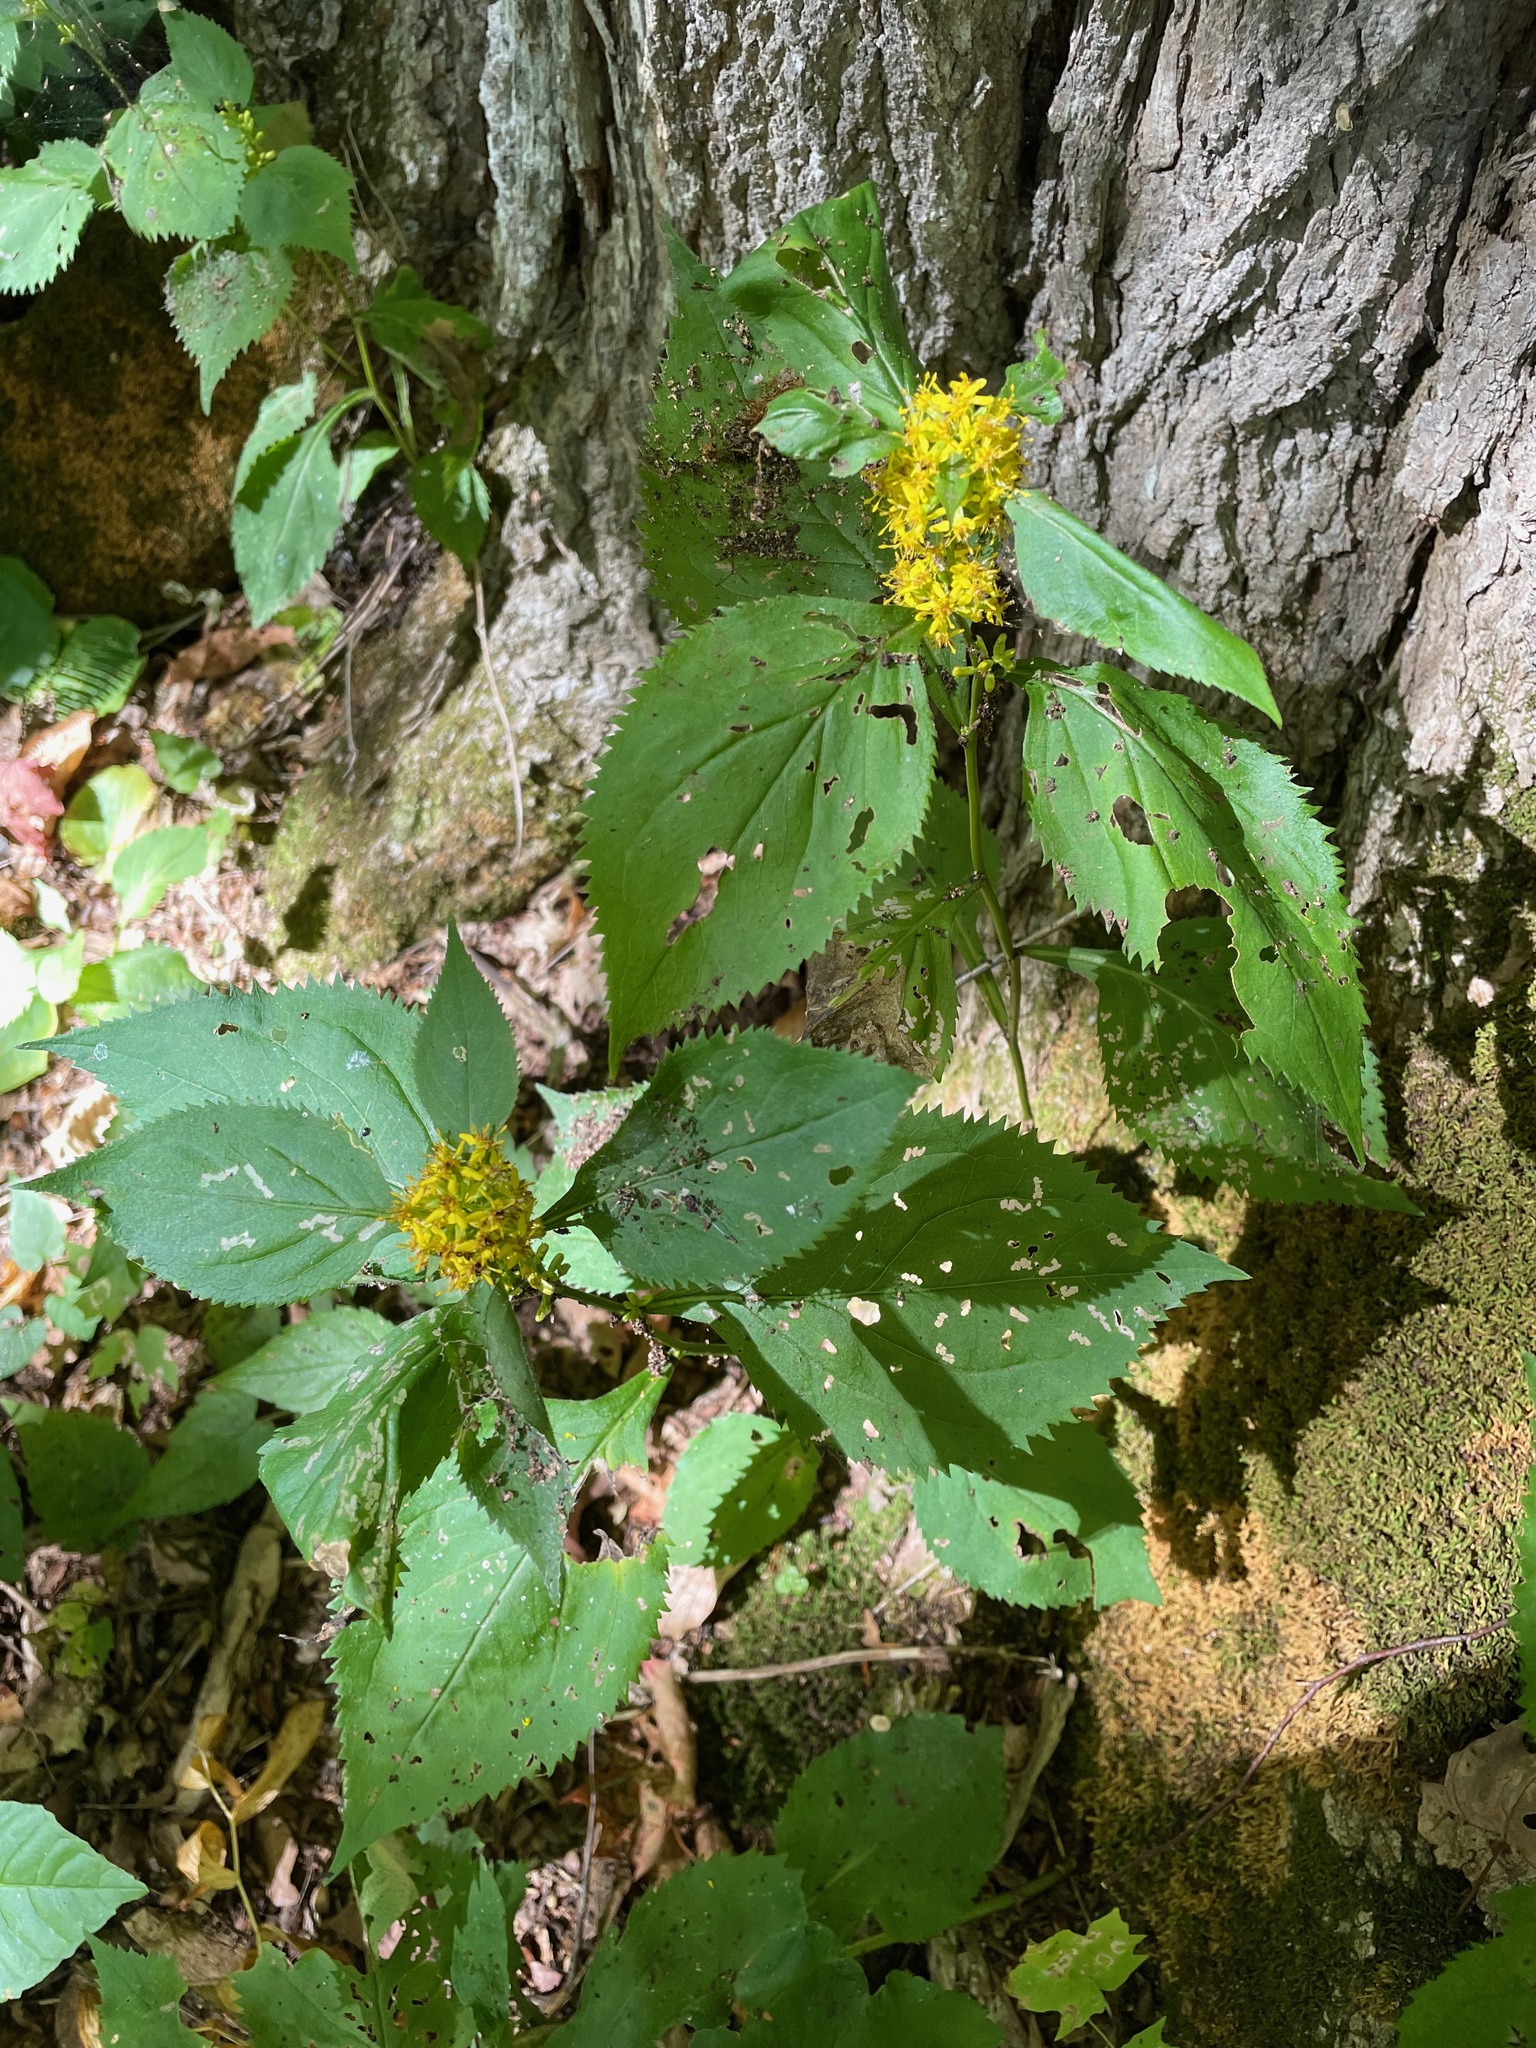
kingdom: Plantae
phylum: Tracheophyta
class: Magnoliopsida
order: Asterales
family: Asteraceae
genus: Solidago
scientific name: Solidago flexicaulis
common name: Zig-zag goldenrod
